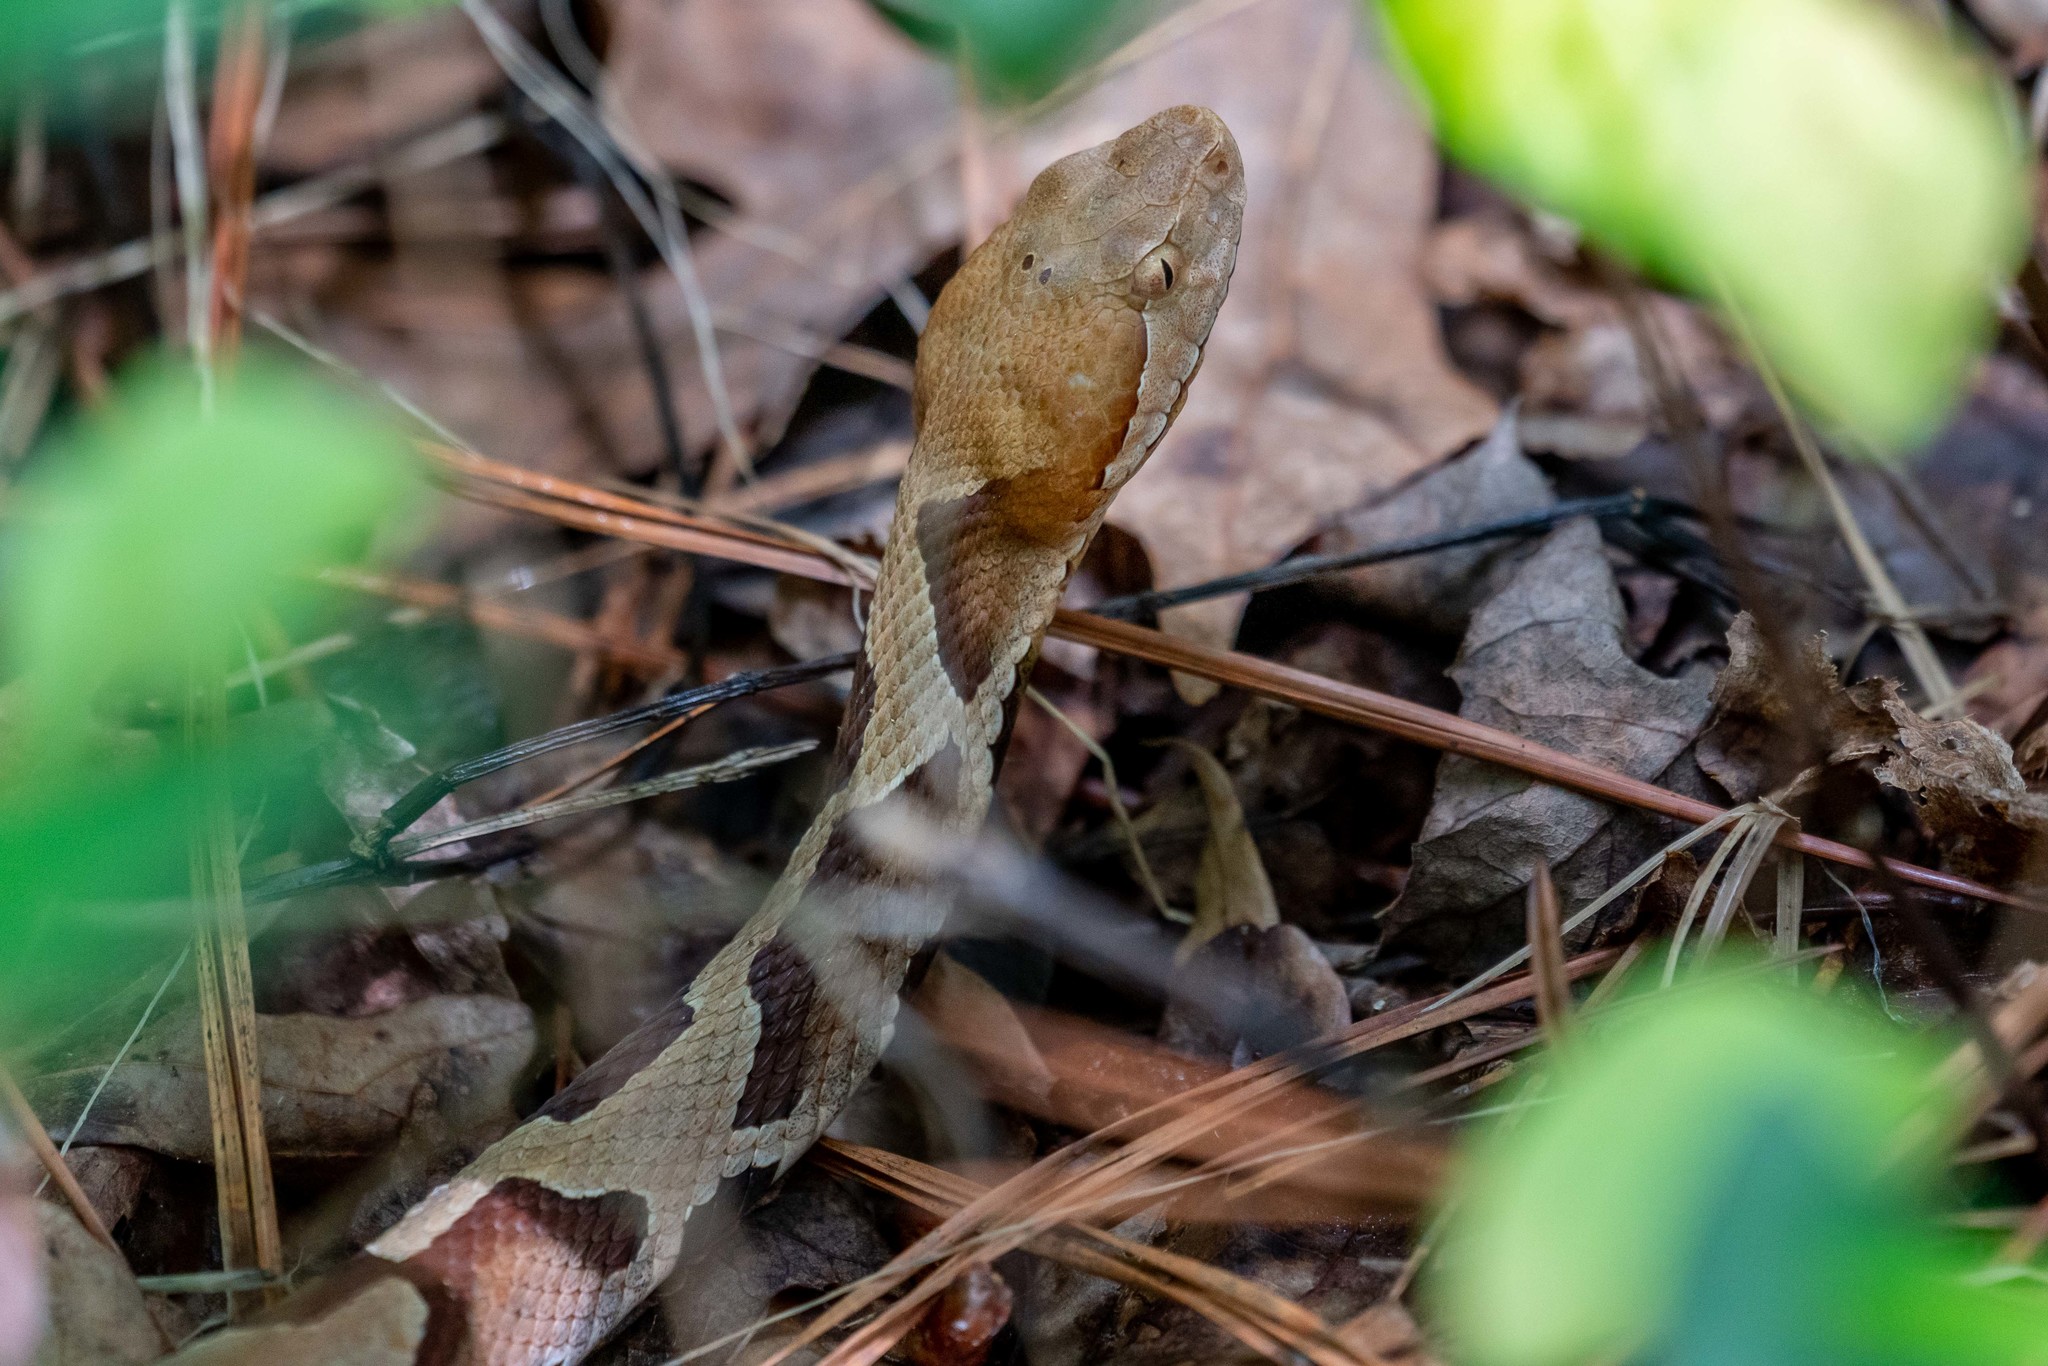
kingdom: Animalia
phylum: Chordata
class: Squamata
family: Viperidae
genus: Agkistrodon
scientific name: Agkistrodon contortrix
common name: Northern copperhead
